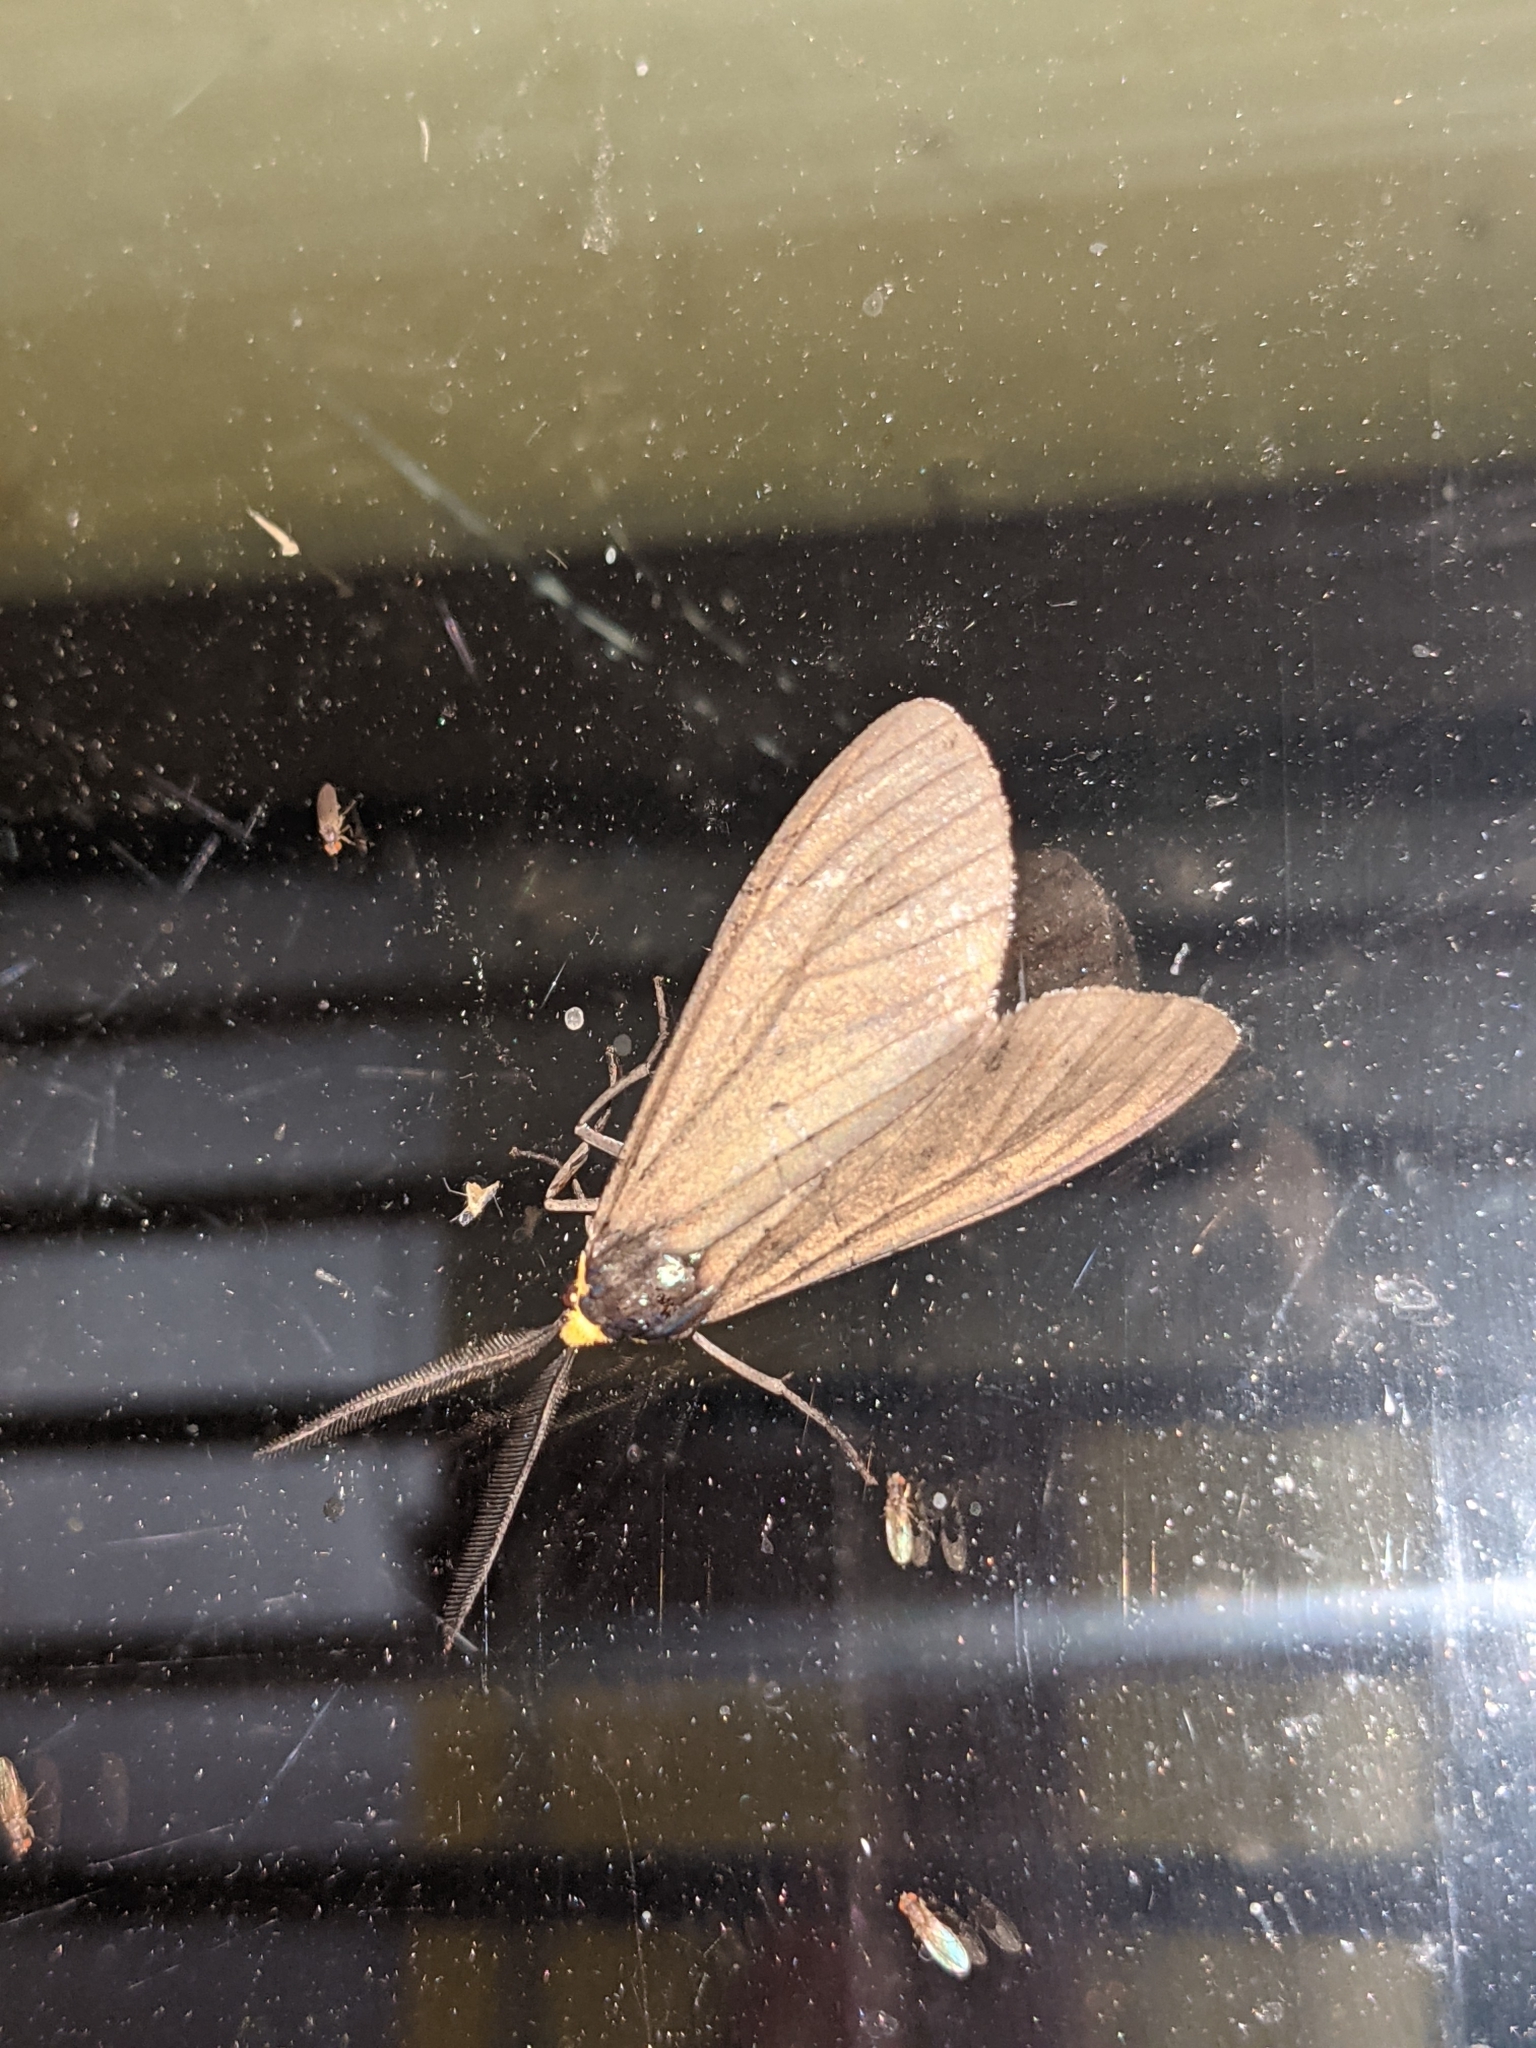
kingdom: Animalia
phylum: Arthropoda
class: Insecta
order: Lepidoptera
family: Erebidae
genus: Ctenucha
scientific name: Ctenucha virginica
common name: Virginia ctenucha moth
